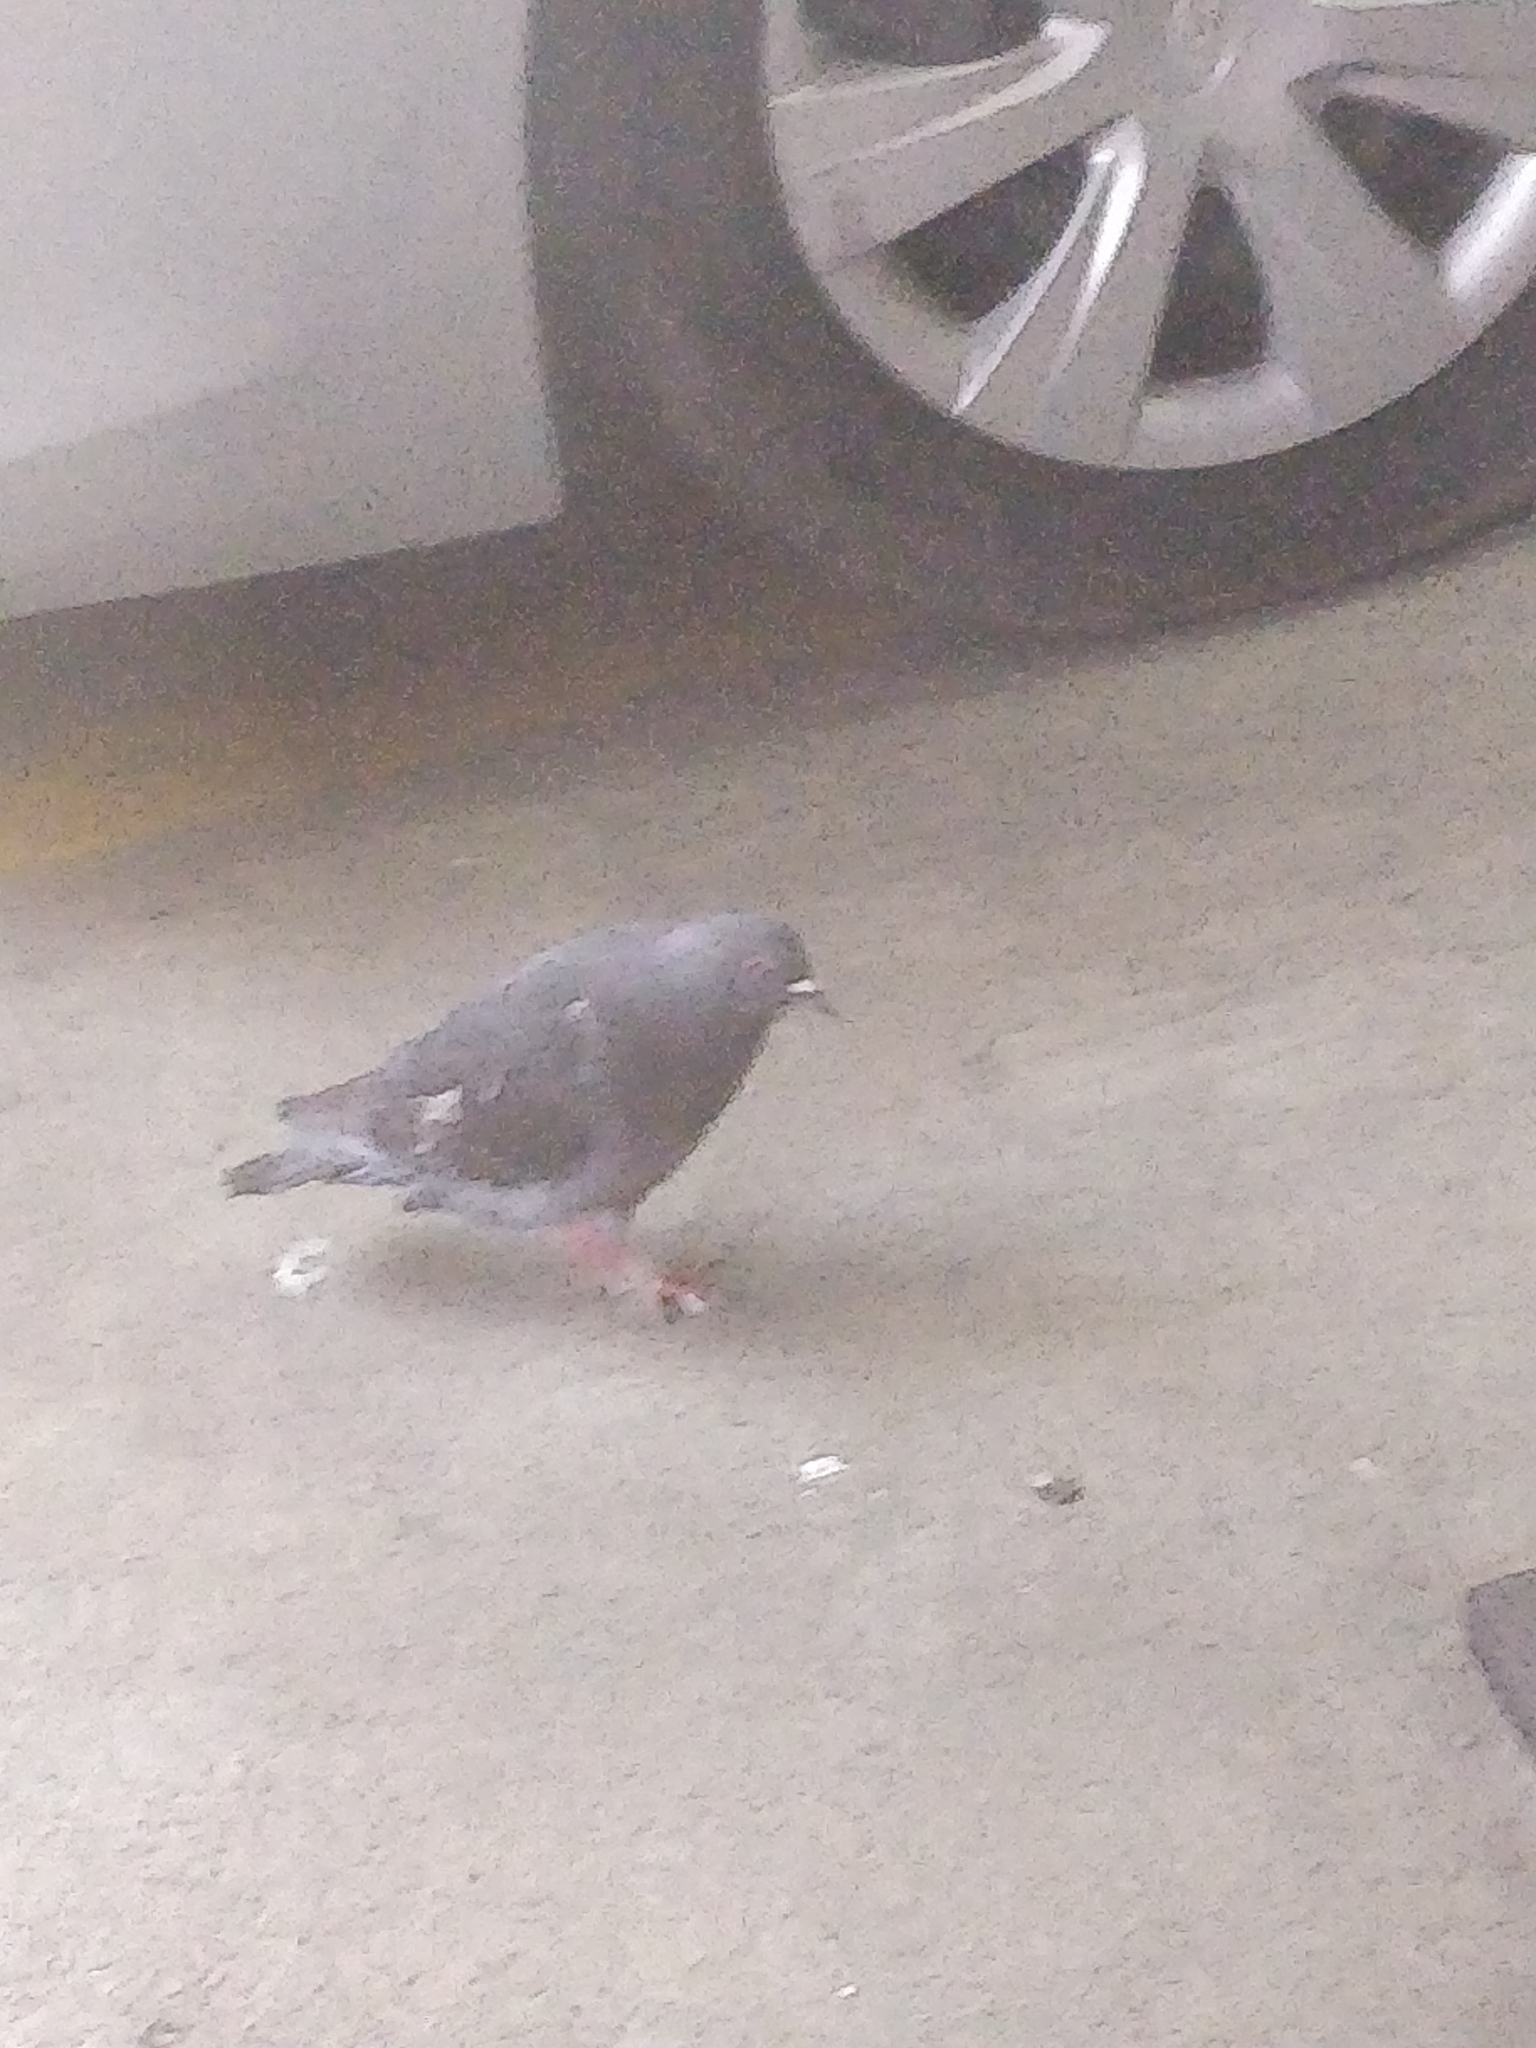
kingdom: Animalia
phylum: Chordata
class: Aves
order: Columbiformes
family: Columbidae
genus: Columba
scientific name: Columba livia
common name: Rock pigeon
